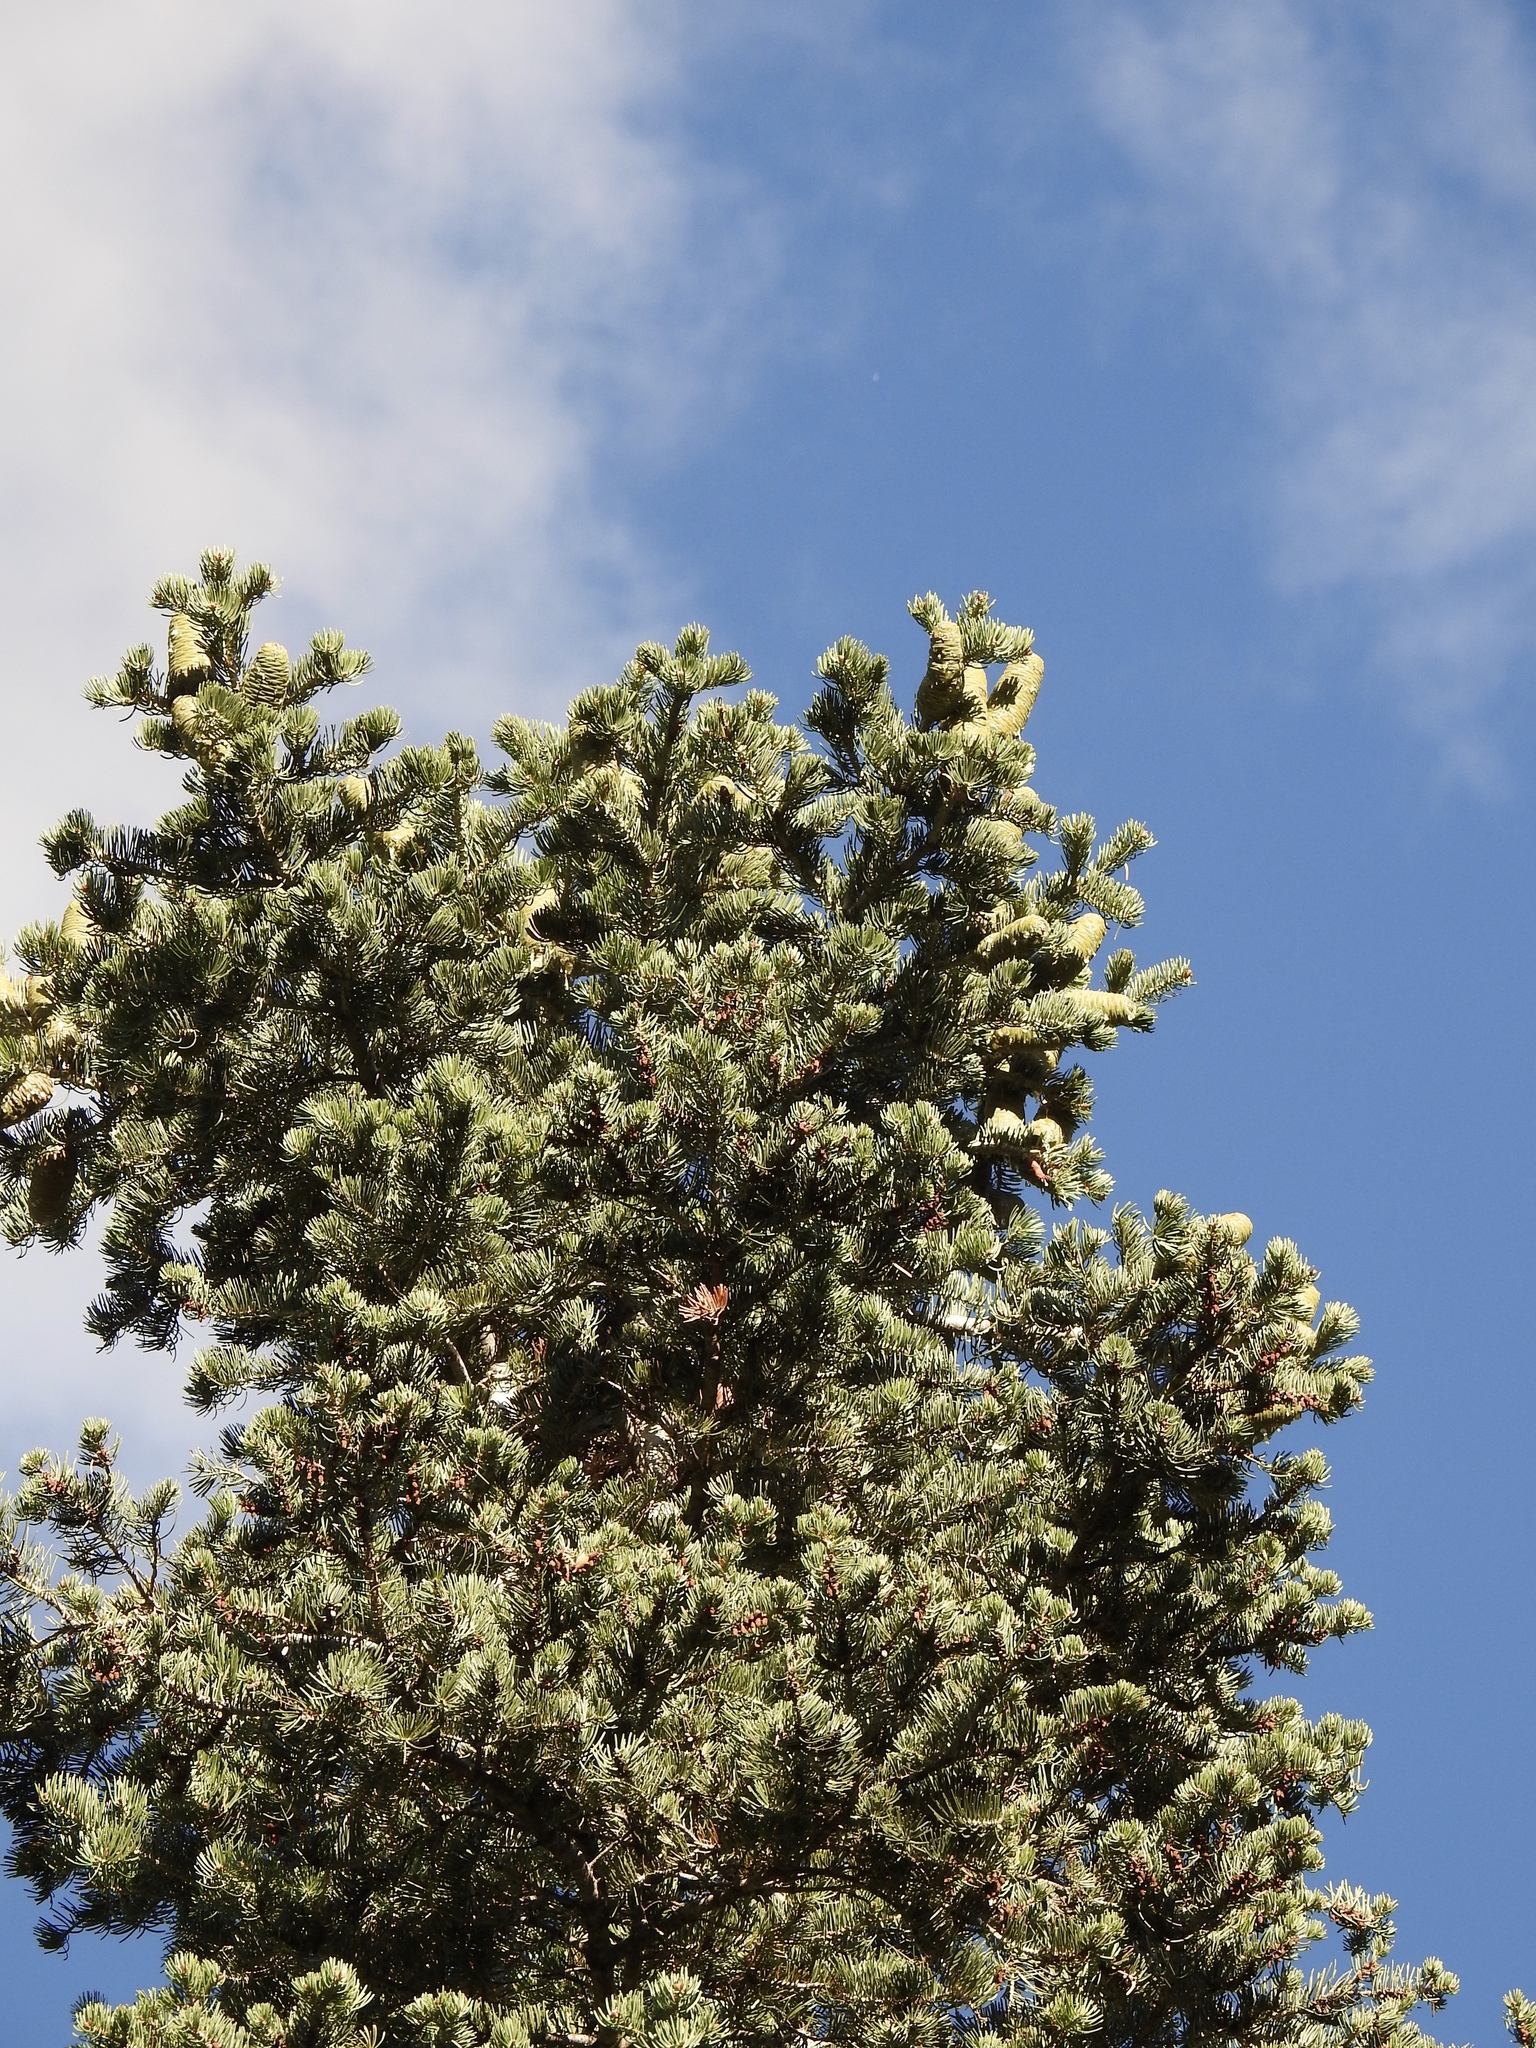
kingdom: Plantae
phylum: Tracheophyta
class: Pinopsida
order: Pinales
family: Pinaceae
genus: Abies
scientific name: Abies concolor
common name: Colorado fir
